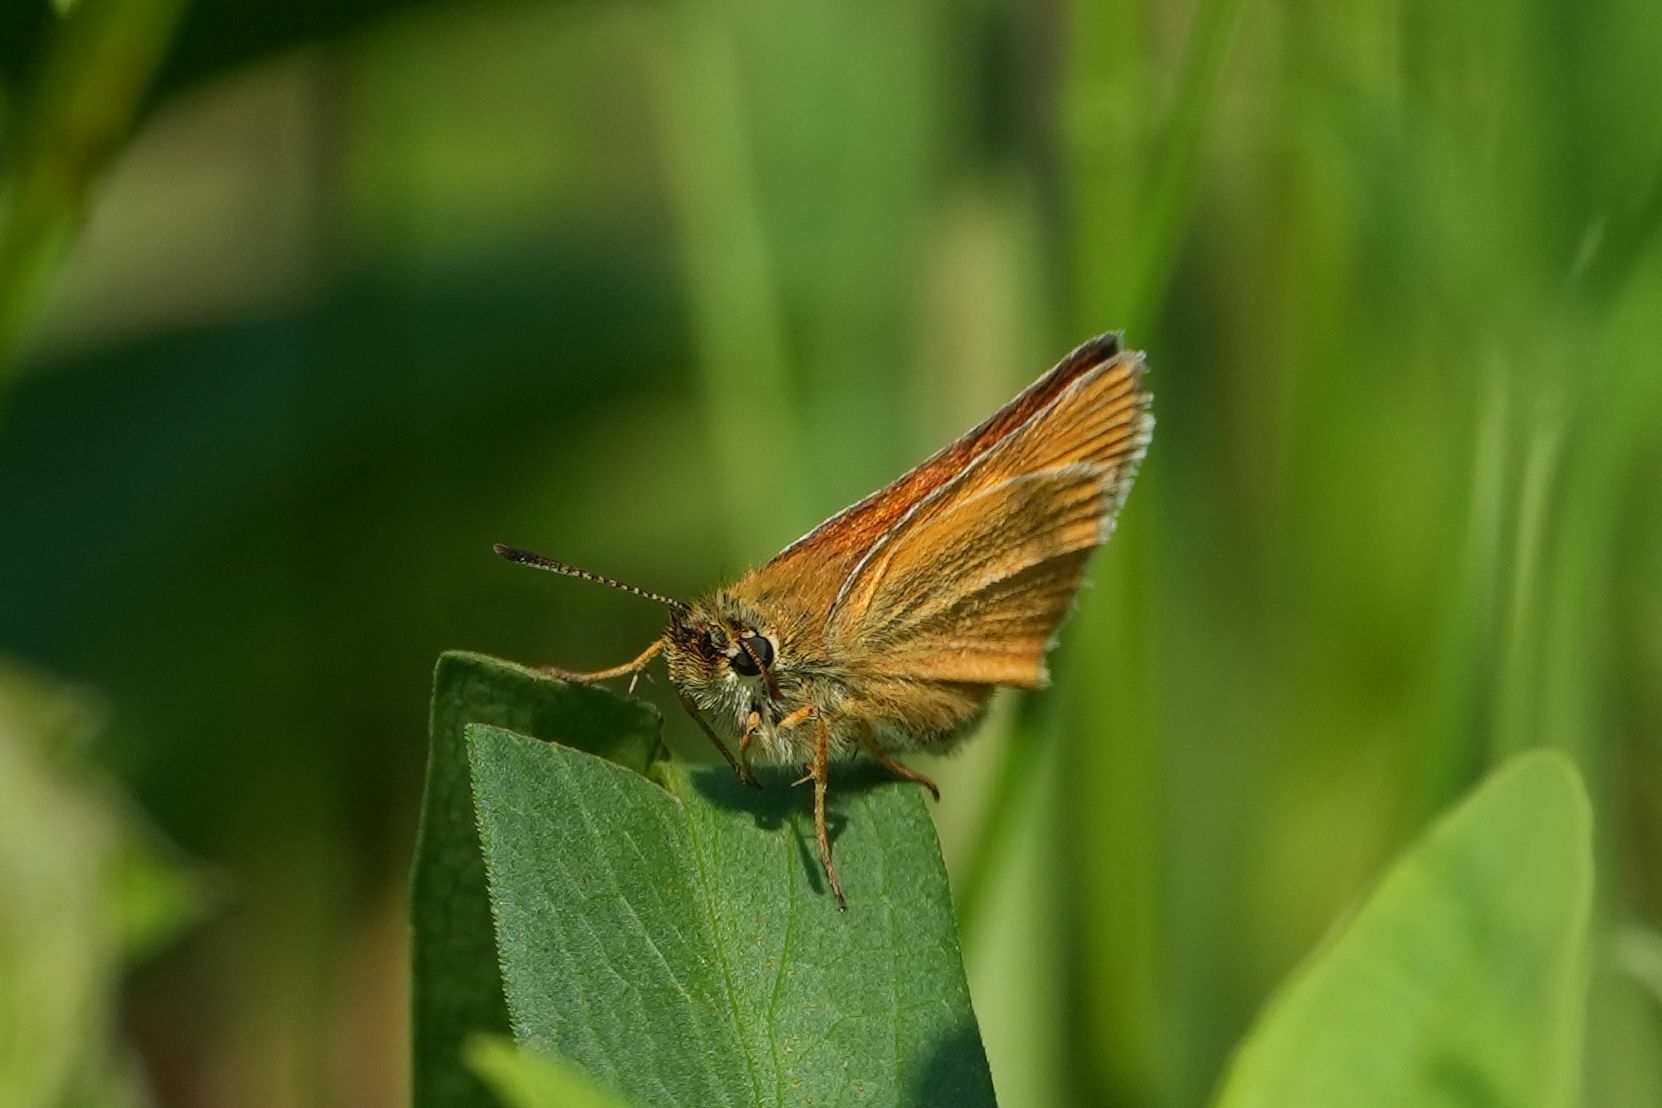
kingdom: Animalia
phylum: Arthropoda
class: Insecta
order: Lepidoptera
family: Hesperiidae
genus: Thymelicus
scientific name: Thymelicus lineola
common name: Essex skipper
